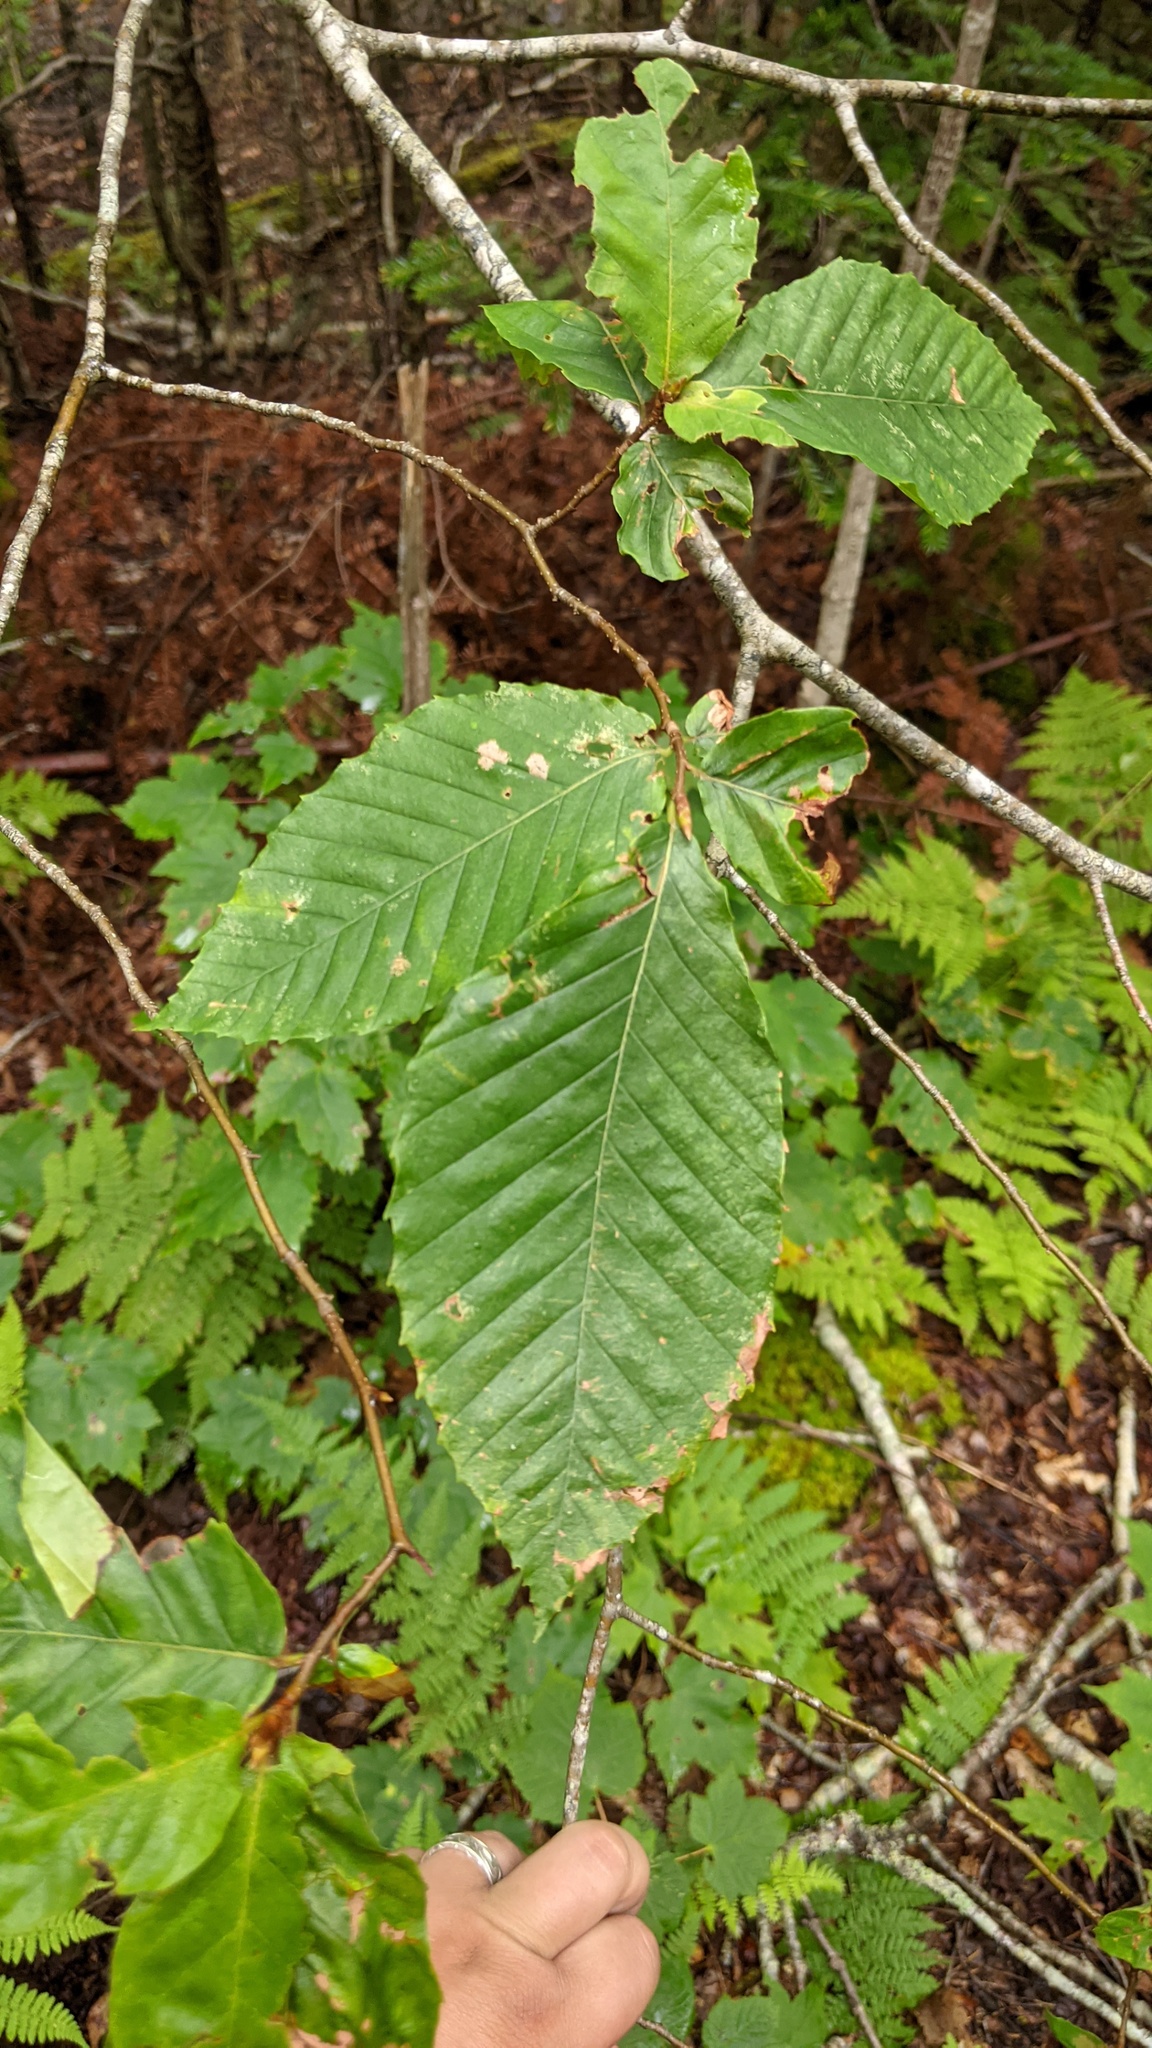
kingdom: Plantae
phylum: Tracheophyta
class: Magnoliopsida
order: Fagales
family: Fagaceae
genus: Fagus
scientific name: Fagus grandifolia
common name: American beech
